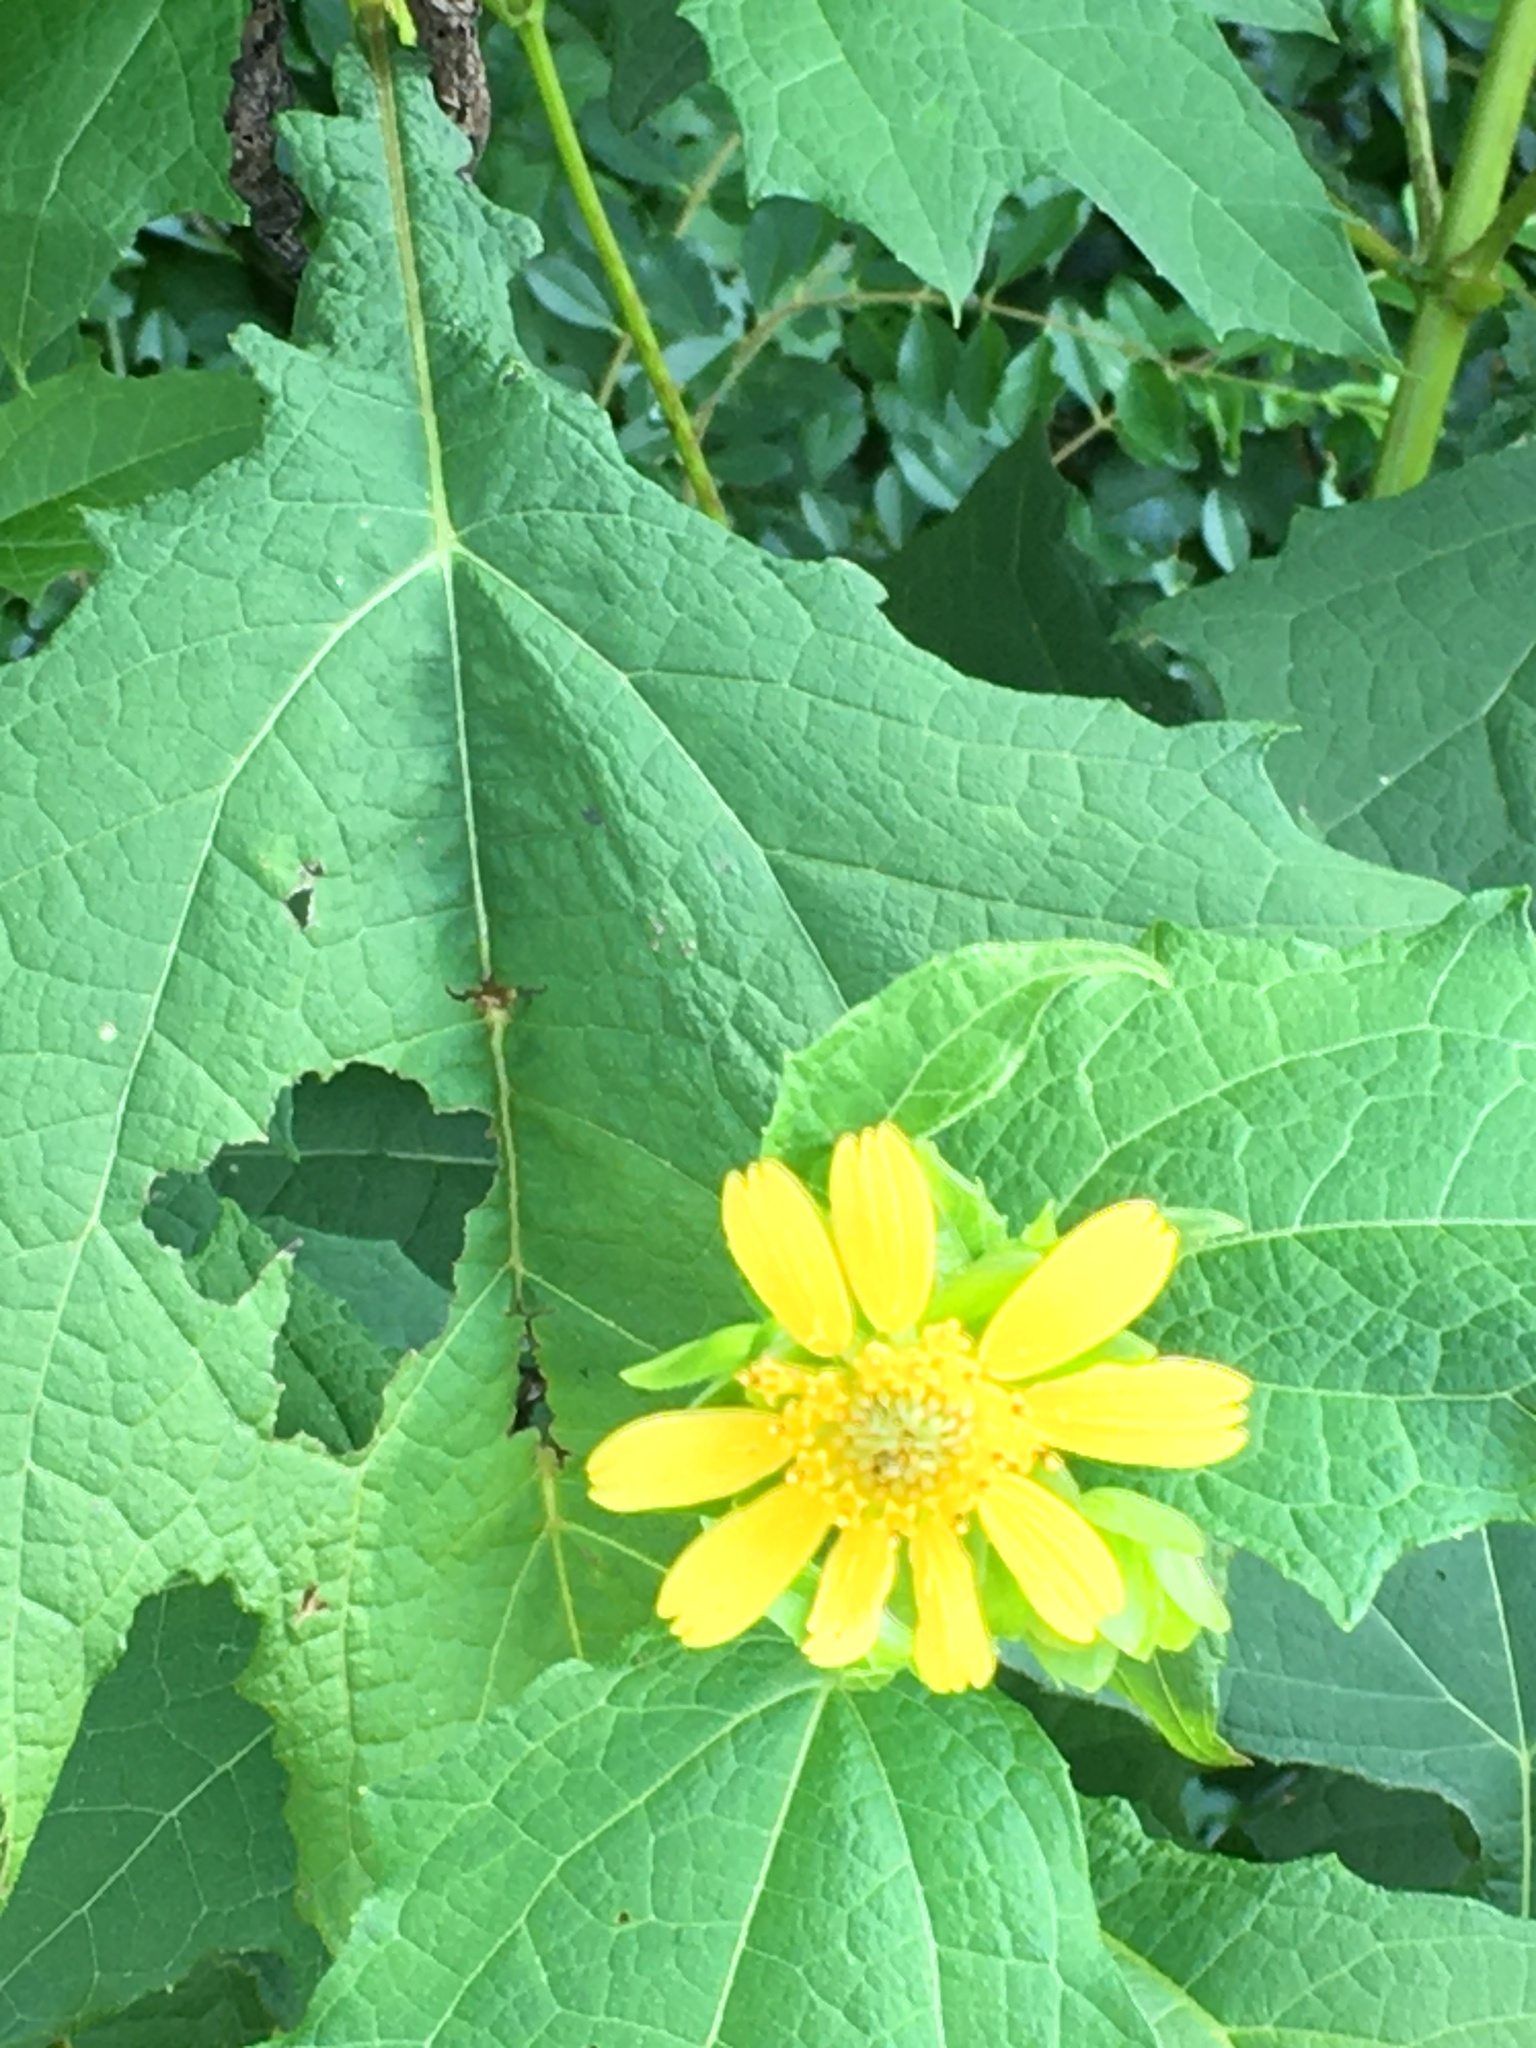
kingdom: Plantae
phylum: Tracheophyta
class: Magnoliopsida
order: Asterales
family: Asteraceae
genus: Smallanthus
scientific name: Smallanthus uvedalia
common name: Bear's-foot
